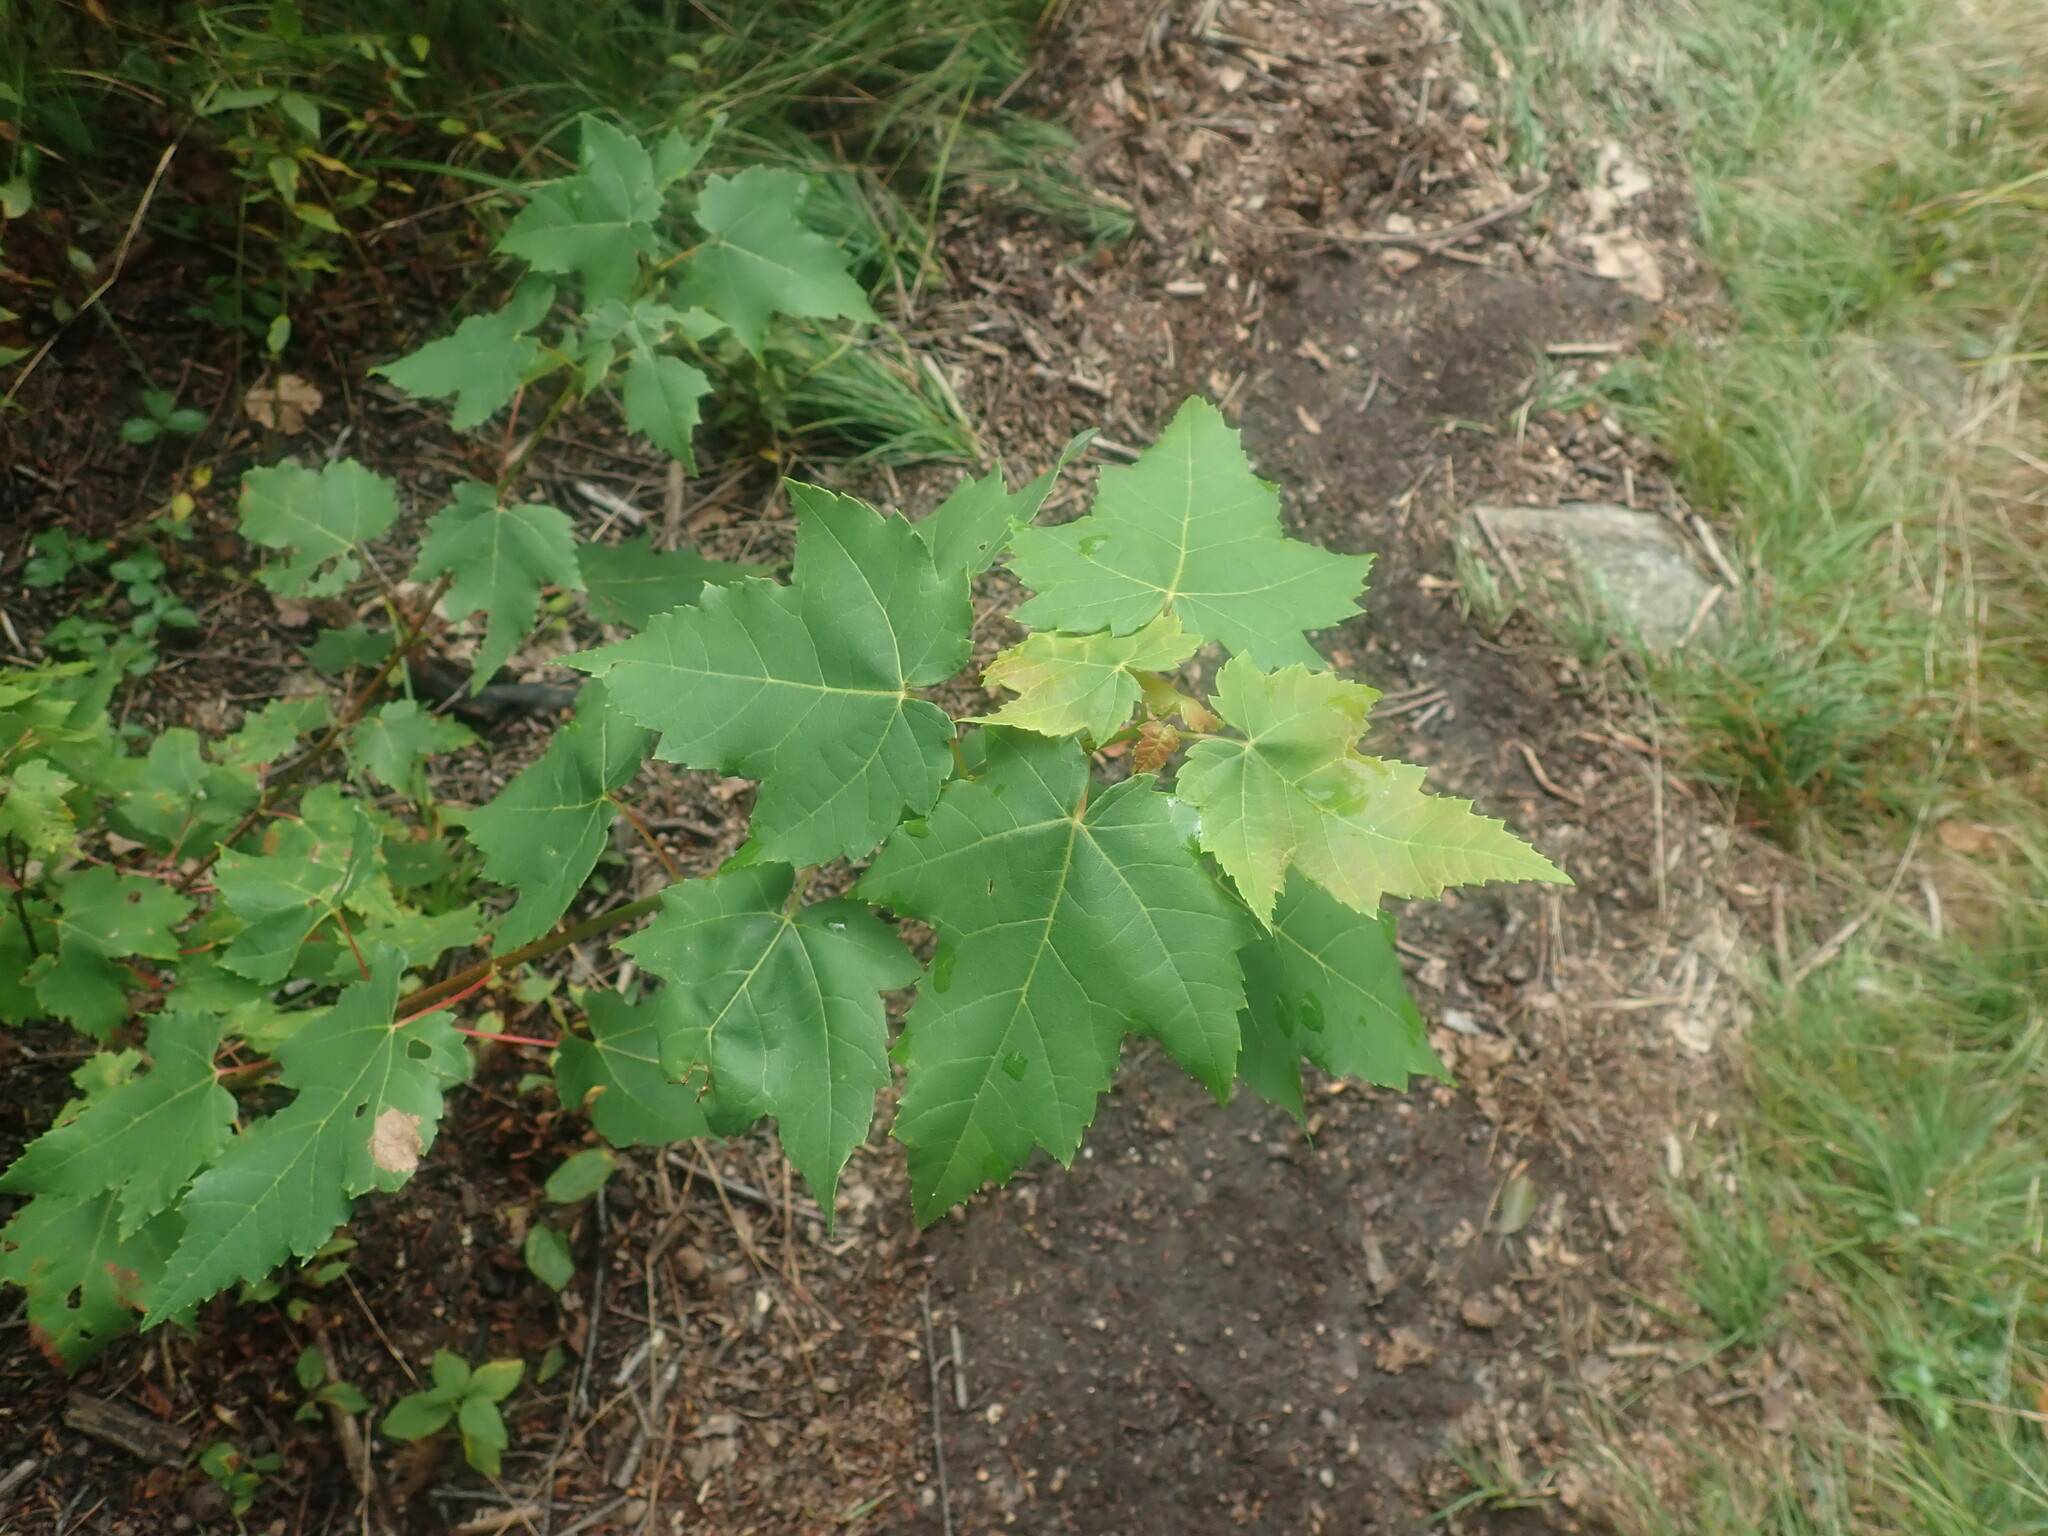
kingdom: Plantae
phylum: Tracheophyta
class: Magnoliopsida
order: Sapindales
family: Sapindaceae
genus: Acer
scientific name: Acer rubrum
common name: Red maple
